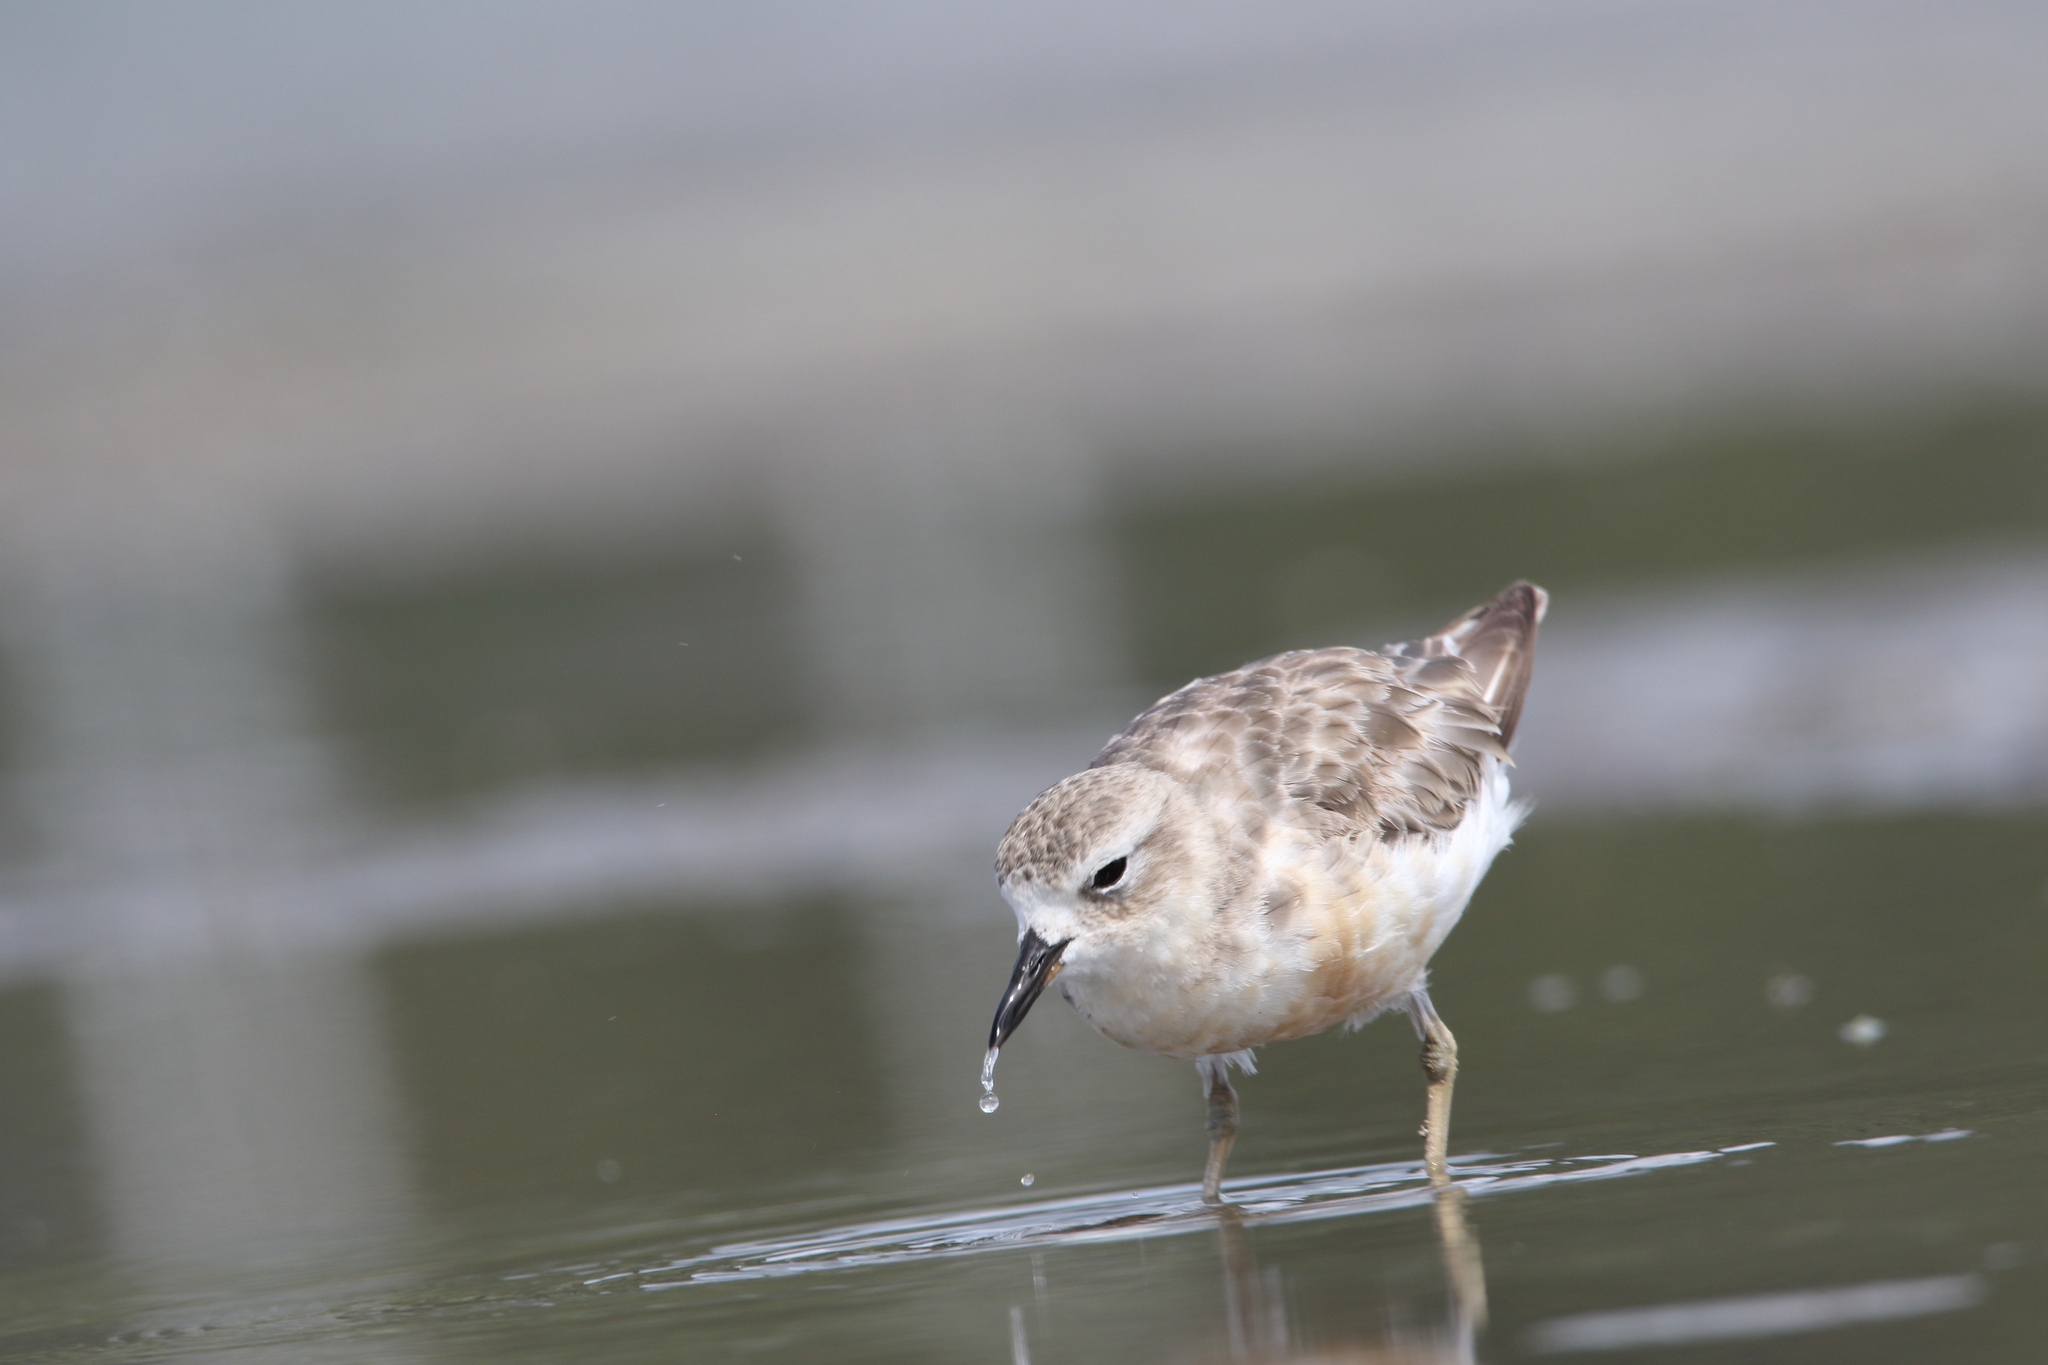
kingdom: Animalia
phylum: Chordata
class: Aves
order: Charadriiformes
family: Charadriidae
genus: Anarhynchus
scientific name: Anarhynchus
